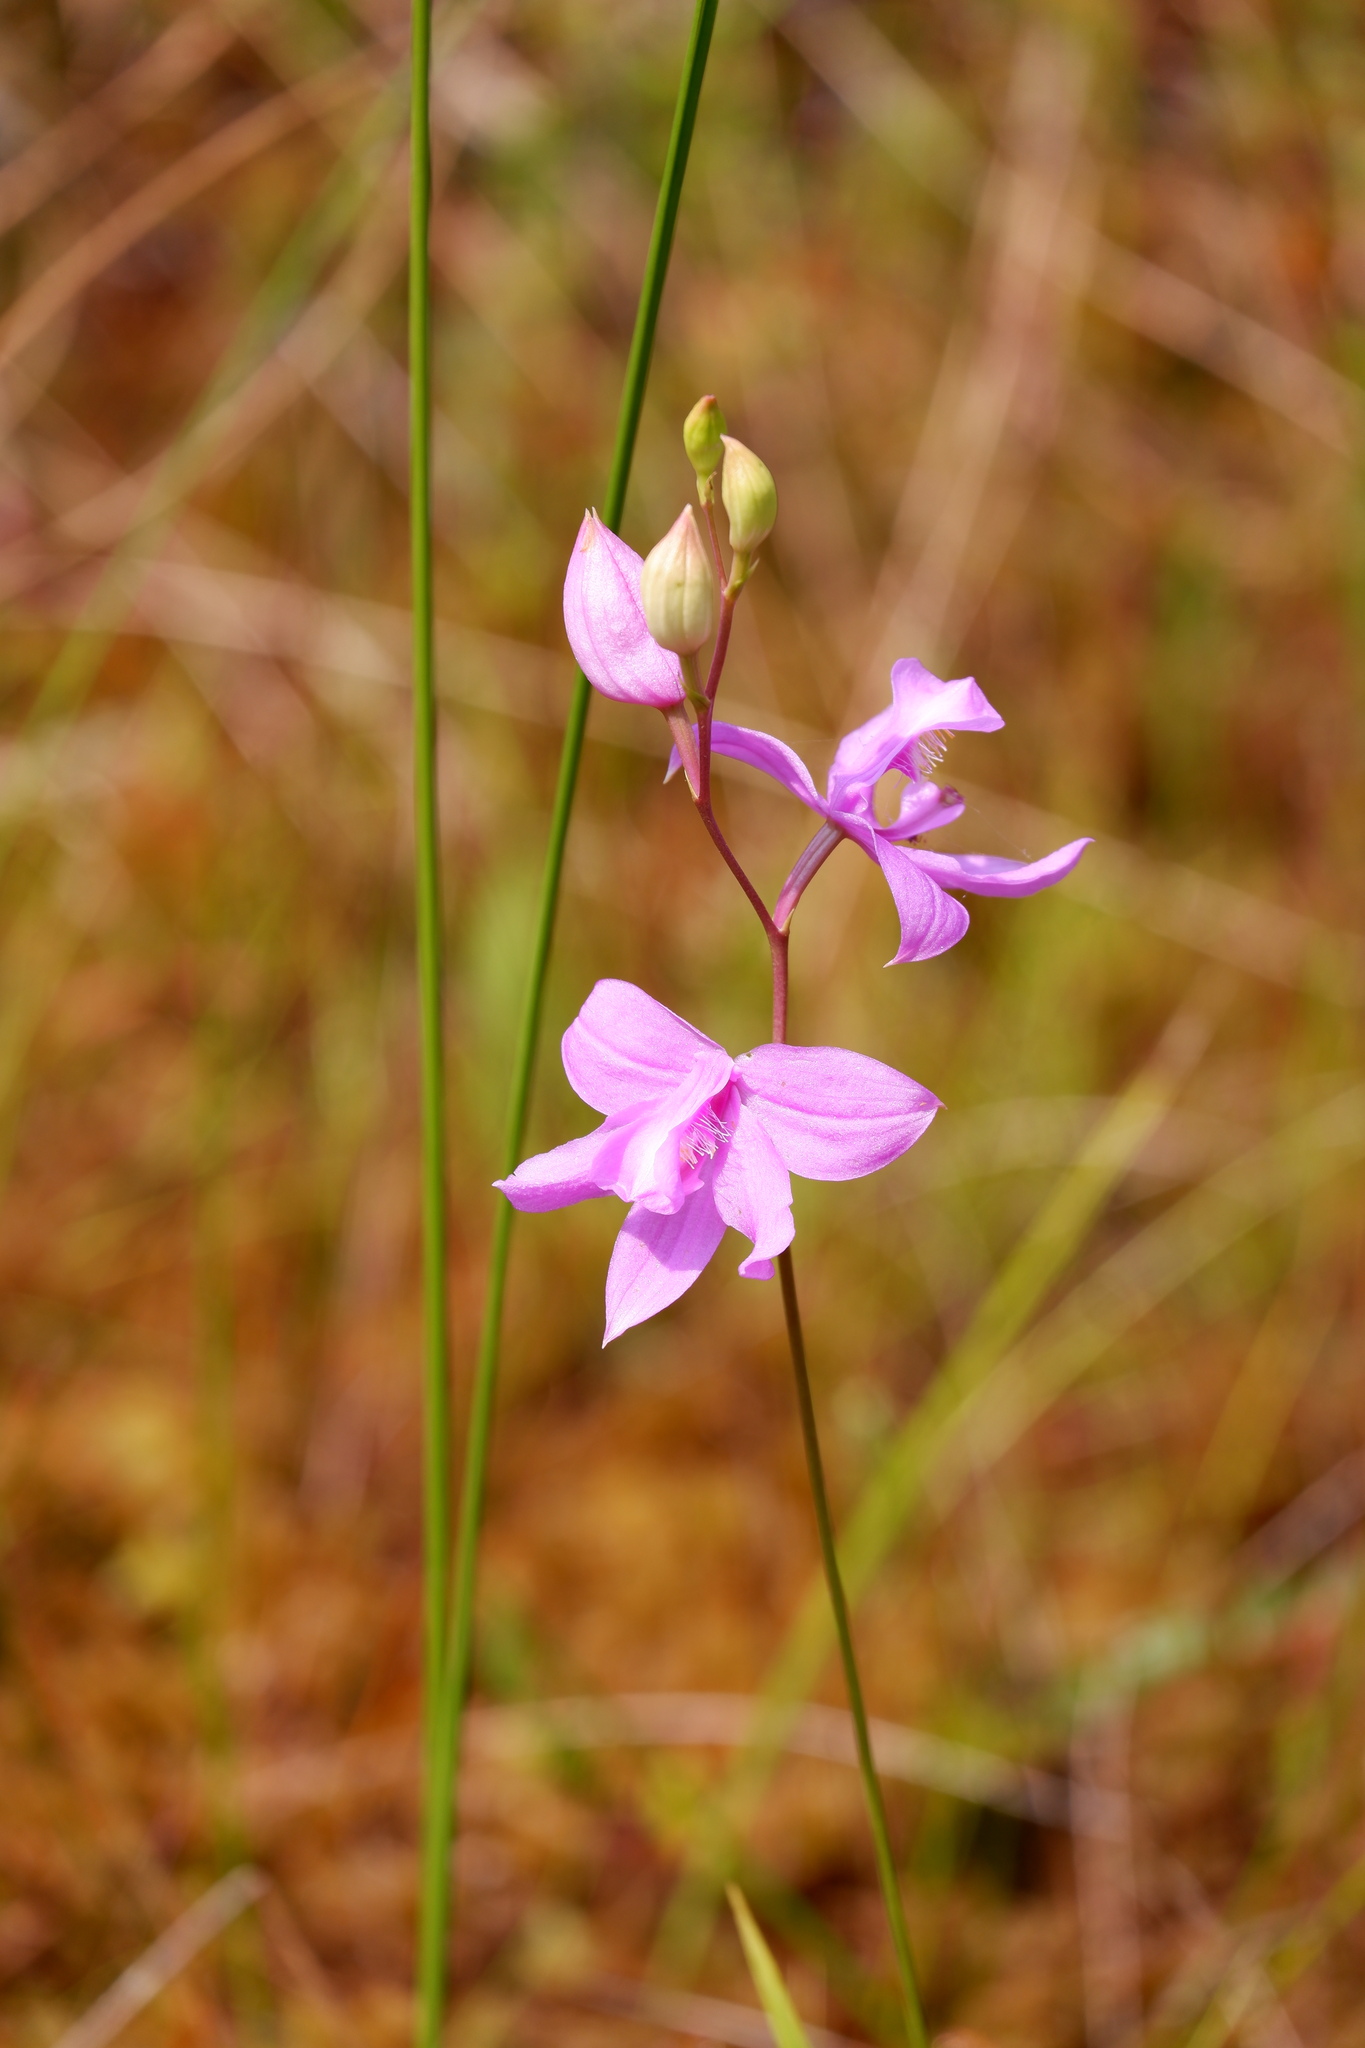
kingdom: Plantae
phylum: Tracheophyta
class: Liliopsida
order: Asparagales
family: Orchidaceae
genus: Calopogon
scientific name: Calopogon tuberosus
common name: Grass-pink
